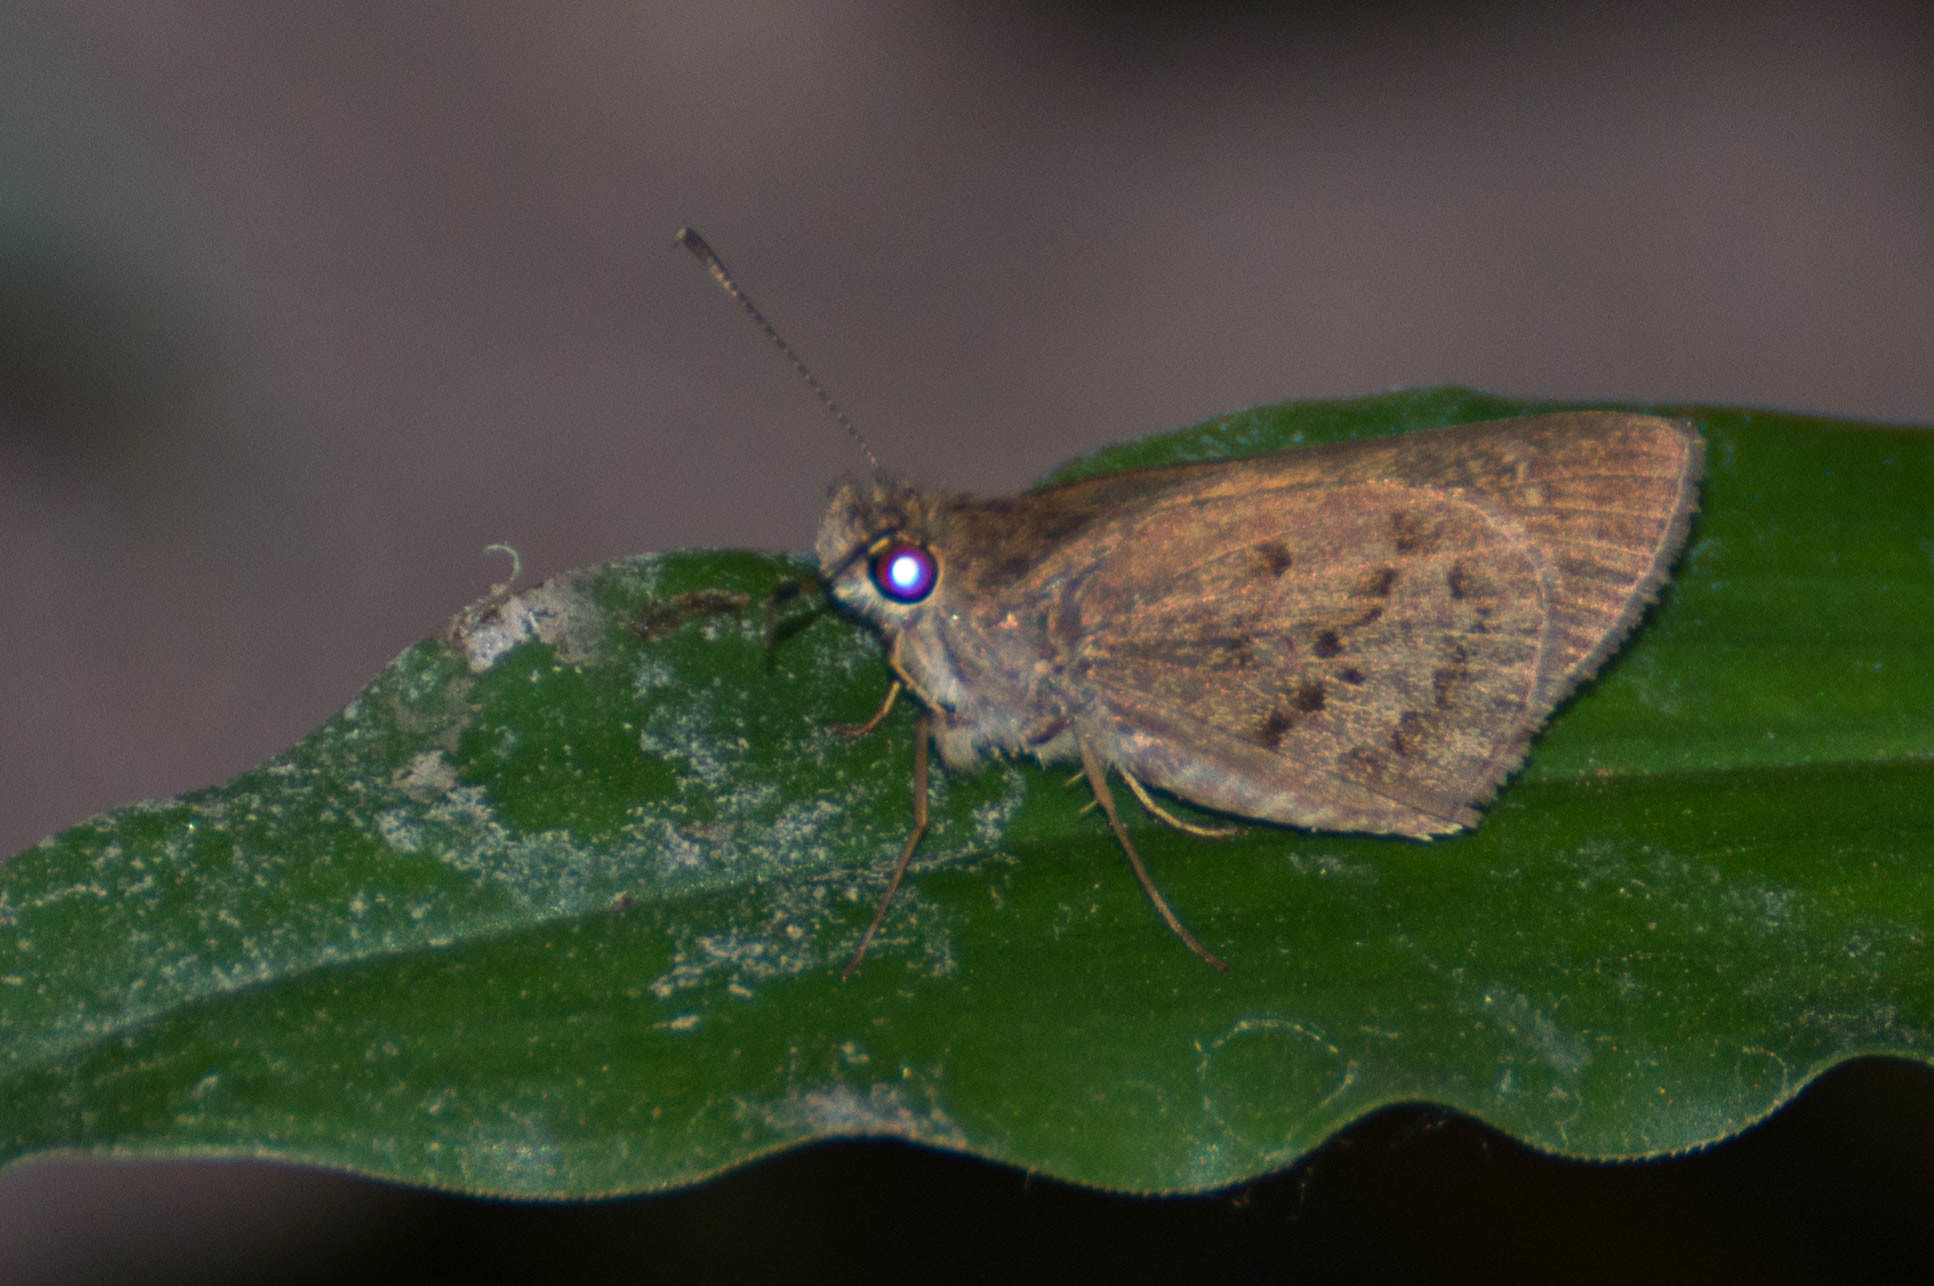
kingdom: Animalia
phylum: Arthropoda
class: Insecta
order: Lepidoptera
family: Hesperiidae
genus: Cymaenes
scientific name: Cymaenes gisca
